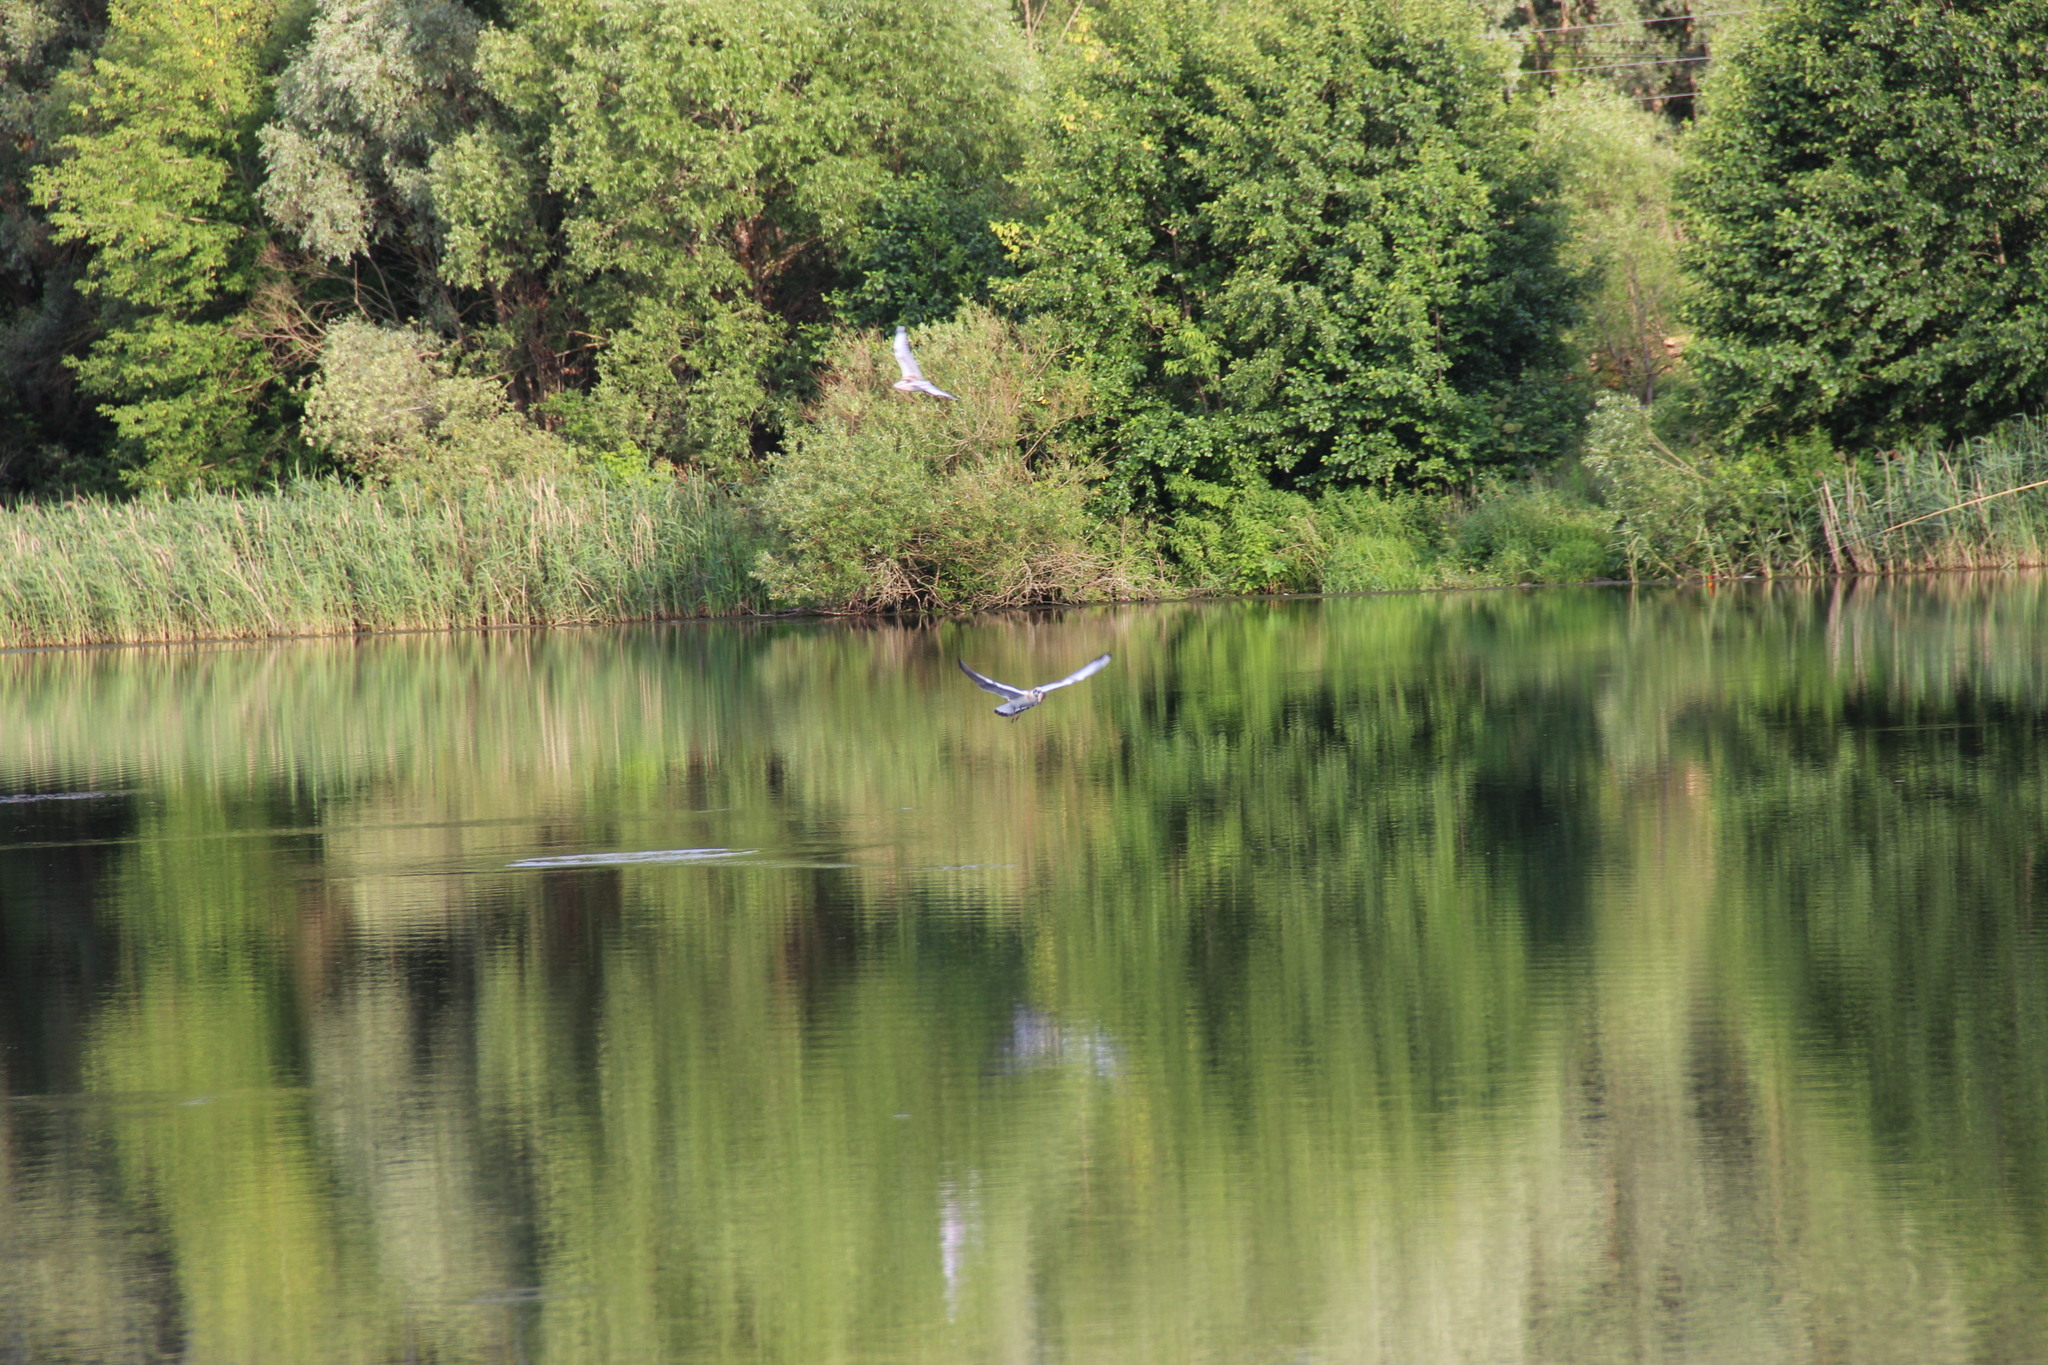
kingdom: Animalia
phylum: Chordata
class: Aves
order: Charadriiformes
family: Laridae
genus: Chroicocephalus
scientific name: Chroicocephalus ridibundus
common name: Black-headed gull
